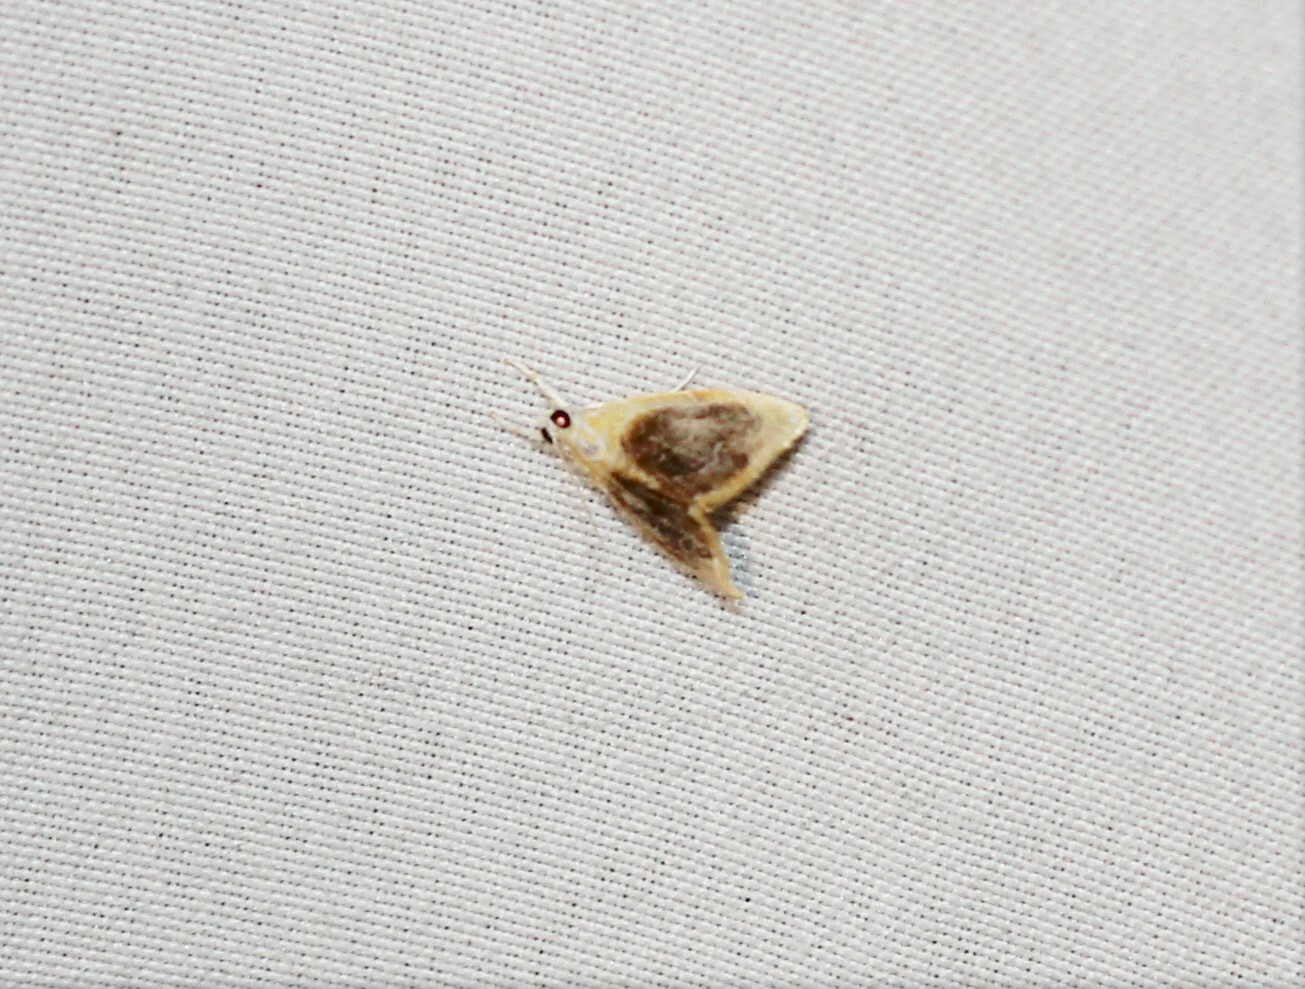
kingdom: Animalia
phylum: Arthropoda
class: Insecta
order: Lepidoptera
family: Crambidae
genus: Glaphyria
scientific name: Glaphyria fulminalis
